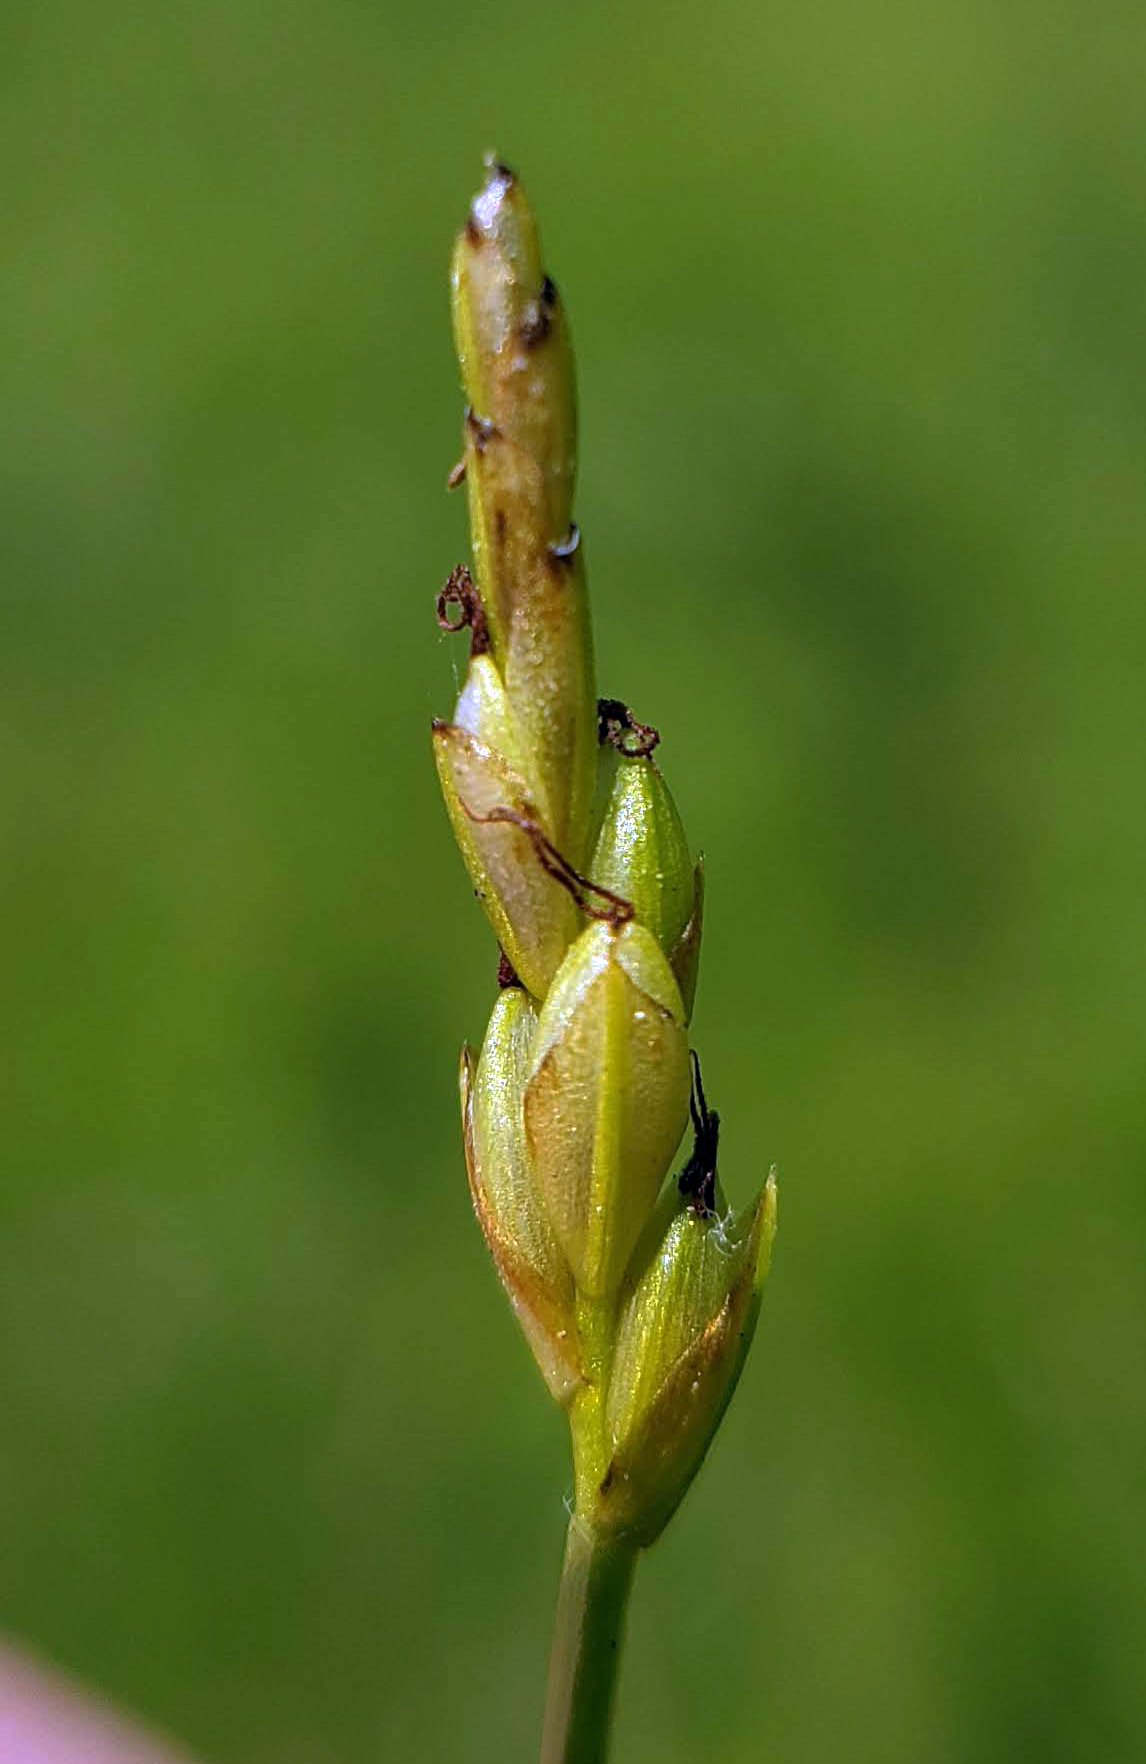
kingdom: Plantae
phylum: Tracheophyta
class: Liliopsida
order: Poales
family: Cyperaceae
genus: Carex
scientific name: Carex leptalea
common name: Bristly-stalked sedge
